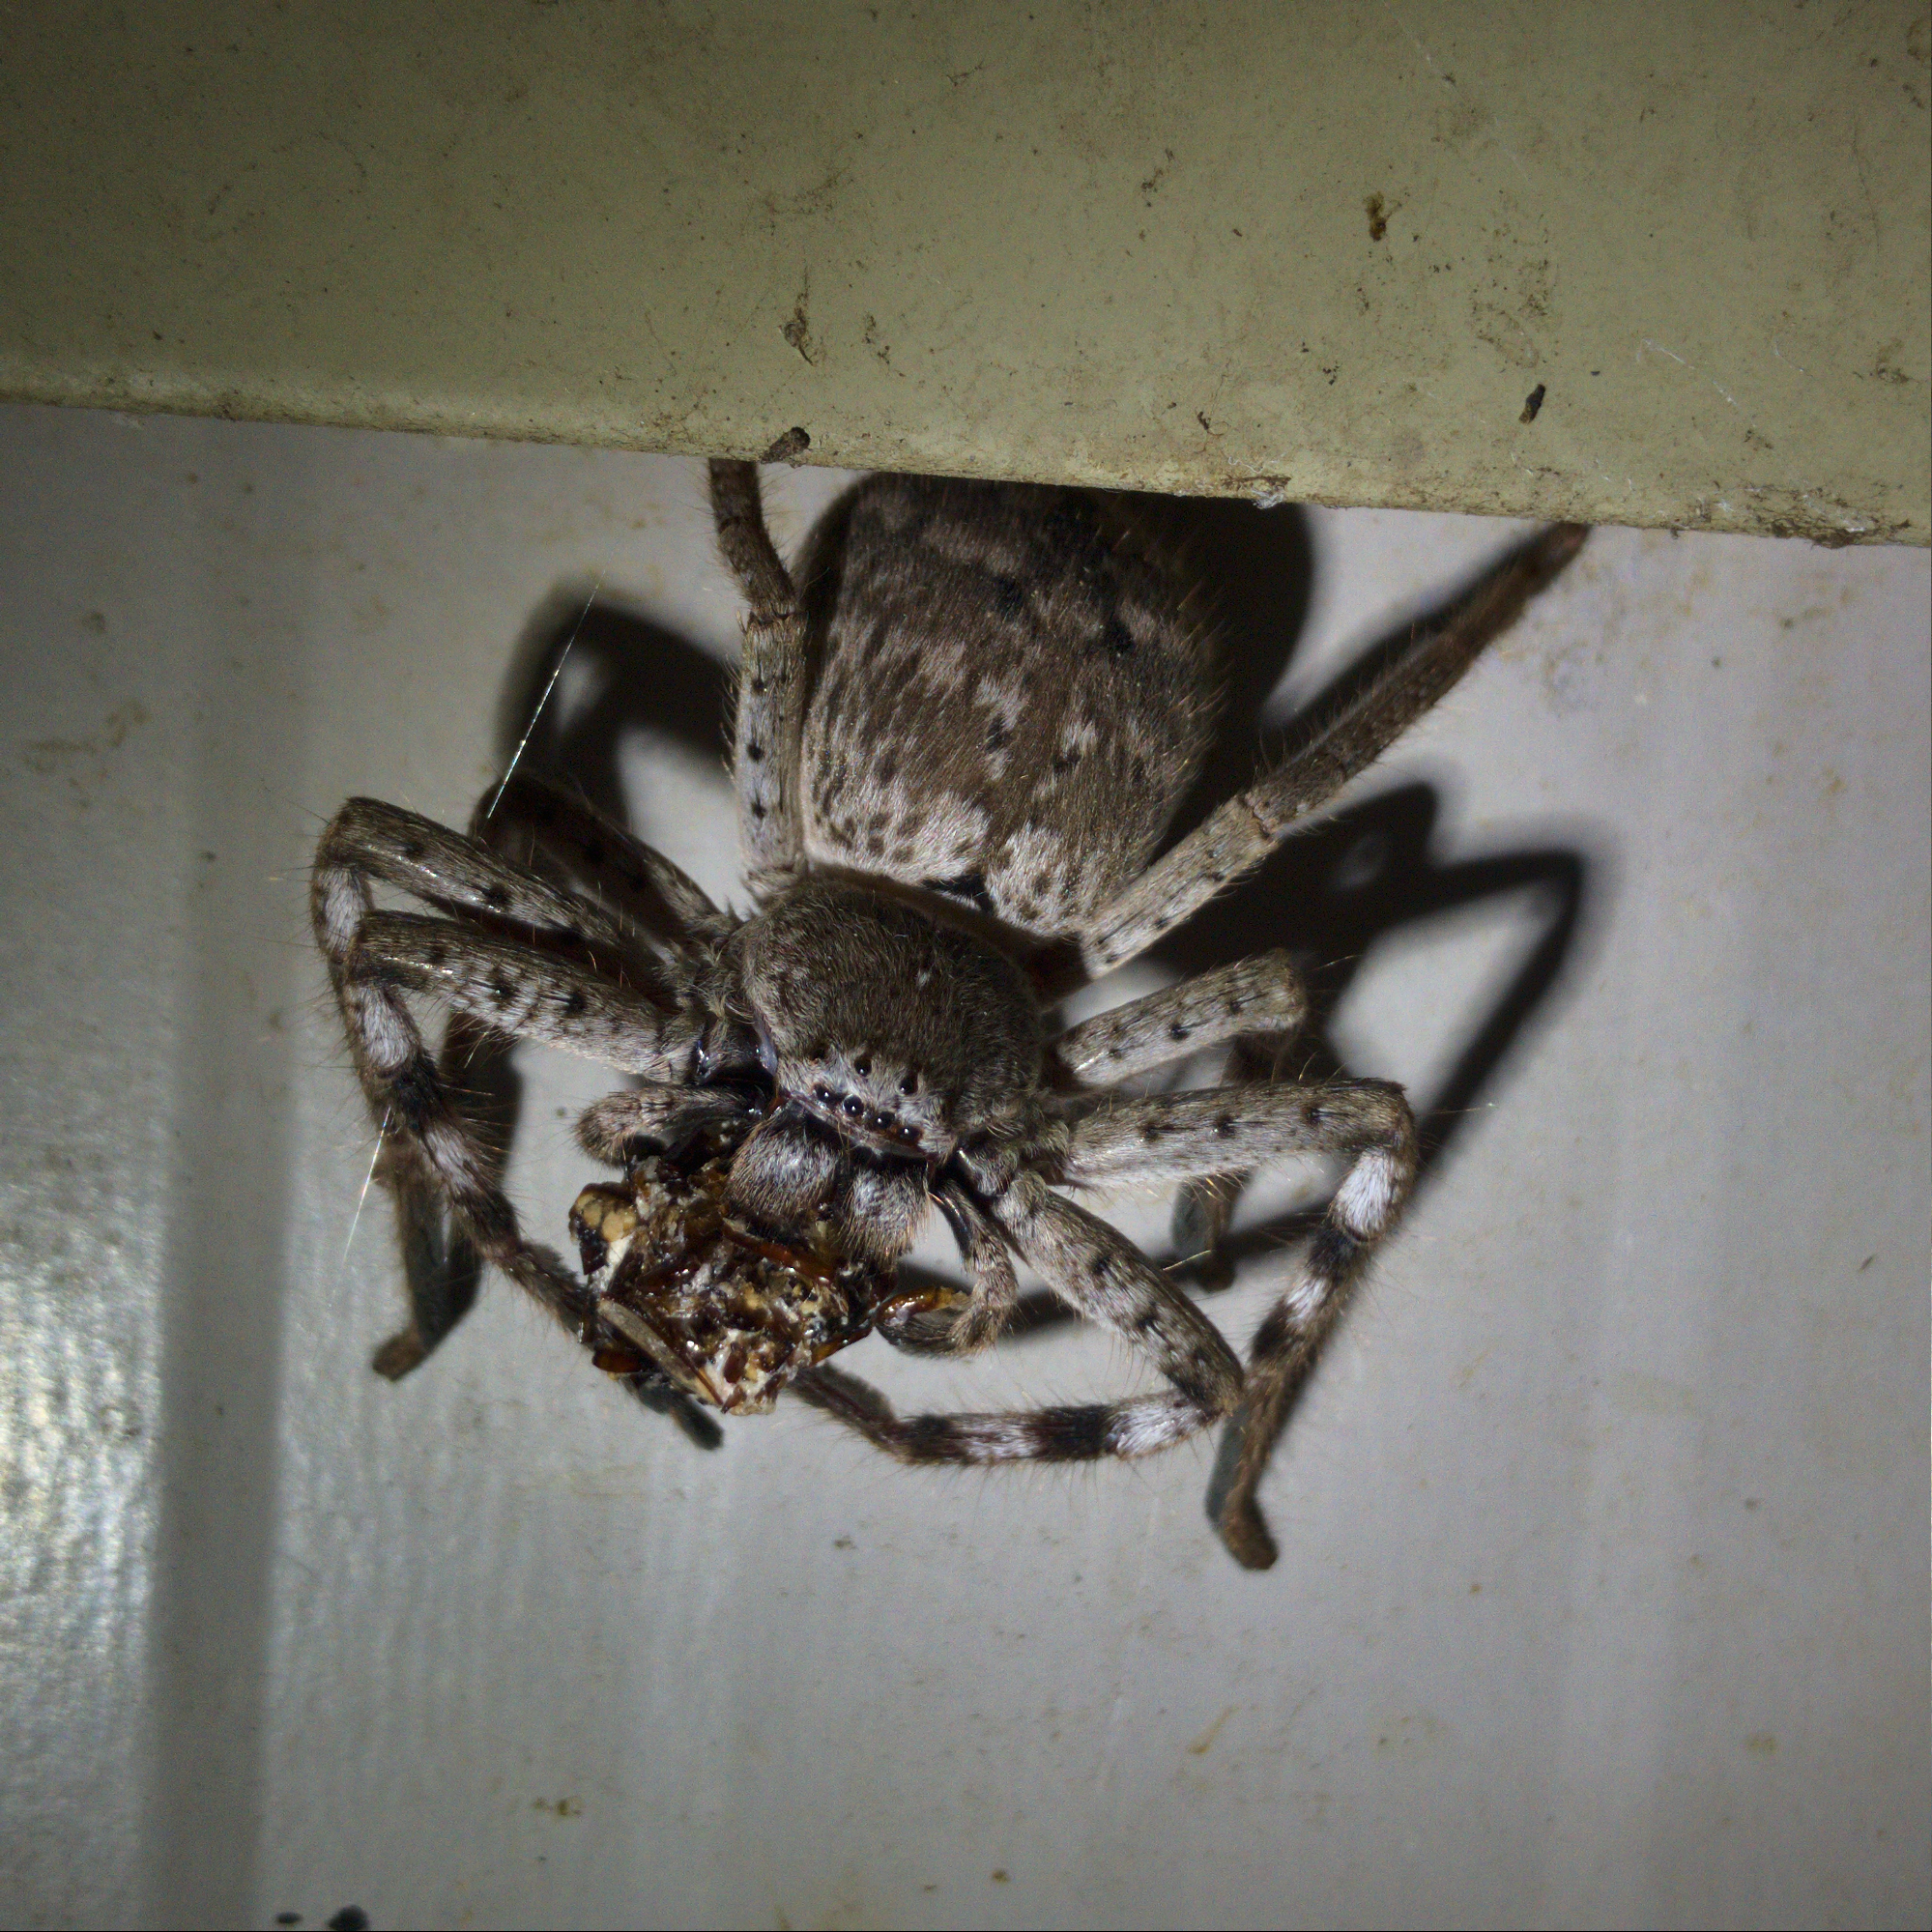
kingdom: Animalia
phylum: Arthropoda
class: Arachnida
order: Araneae
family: Sparassidae
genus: Isopedella
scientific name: Isopedella victorialis
